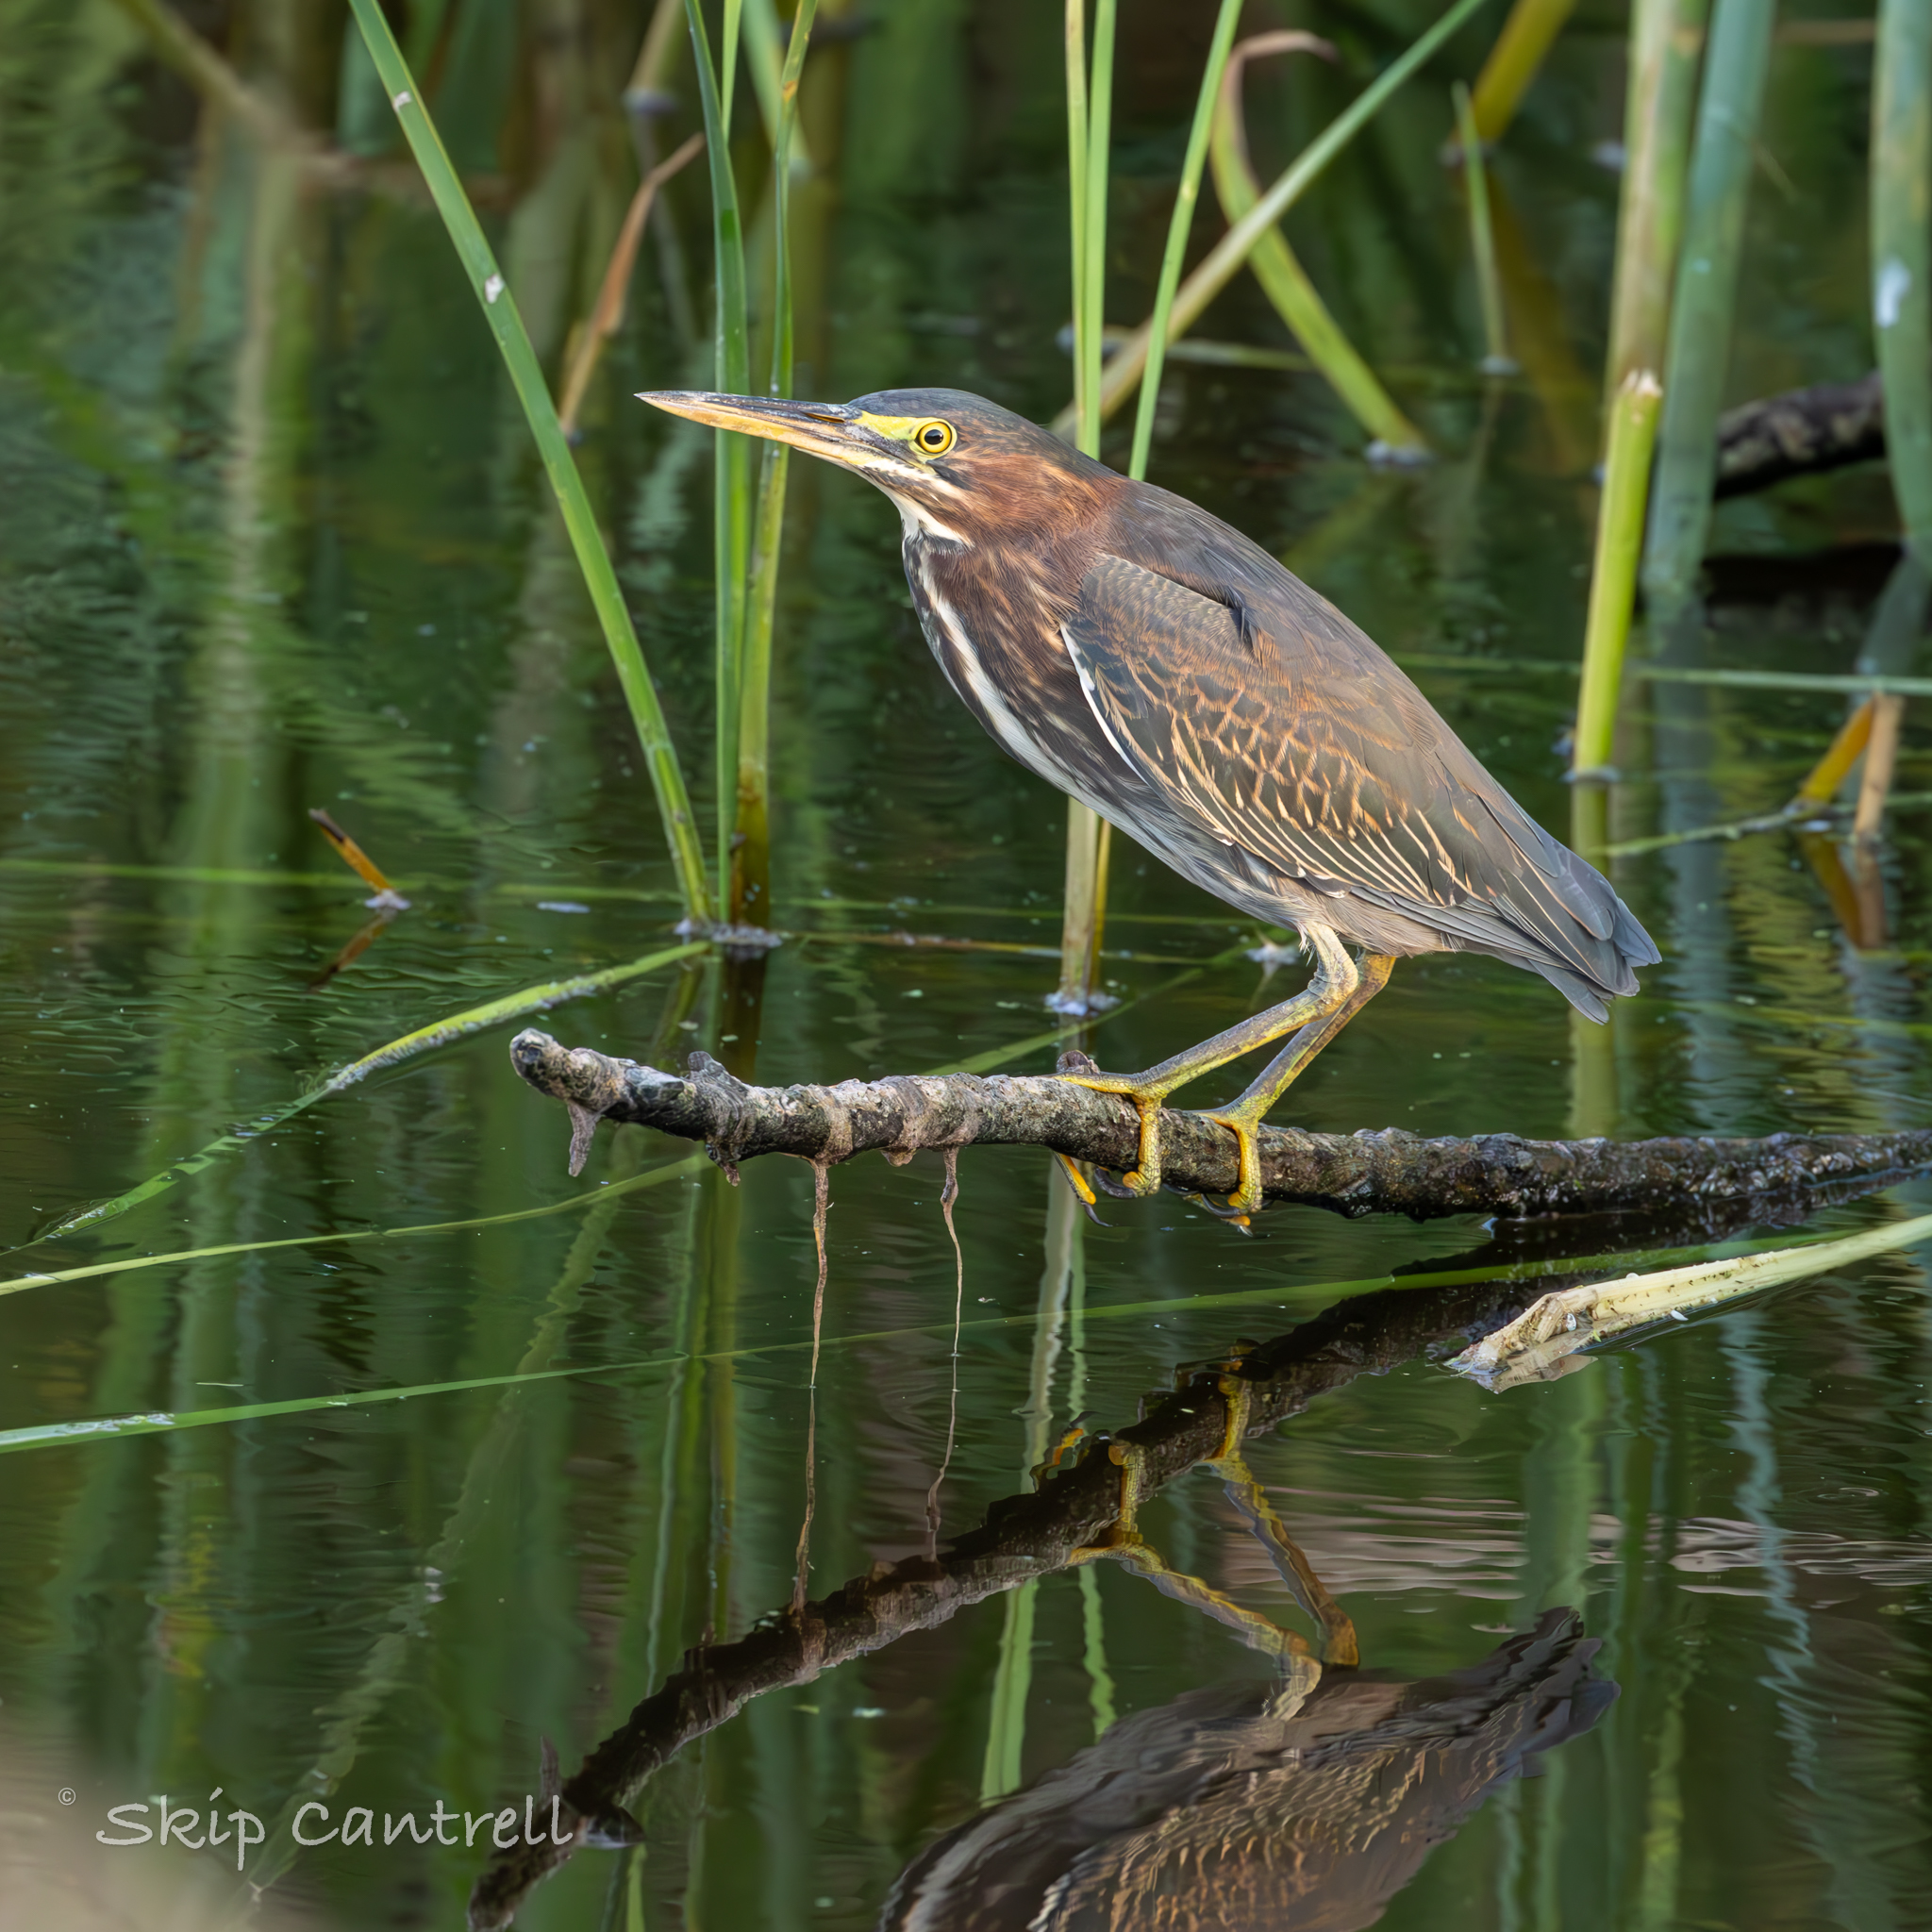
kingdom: Animalia
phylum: Chordata
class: Aves
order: Pelecaniformes
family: Ardeidae
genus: Butorides
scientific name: Butorides virescens
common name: Green heron
